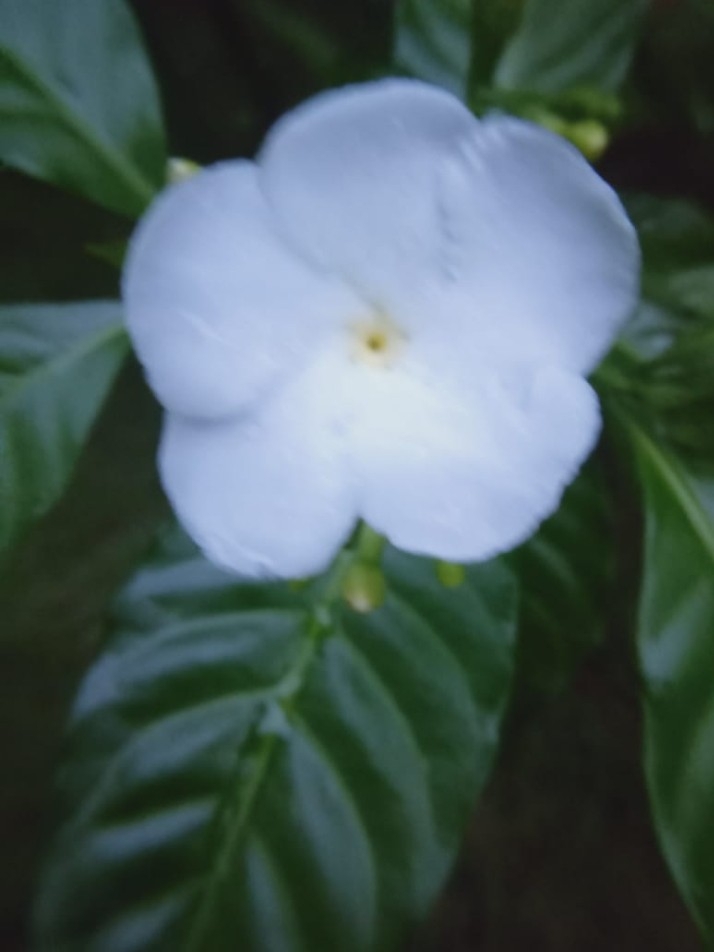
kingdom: Plantae
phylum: Tracheophyta
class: Magnoliopsida
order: Gentianales
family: Apocynaceae
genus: Tabernaemontana
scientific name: Tabernaemontana divaricata
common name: Pinwheelflower
